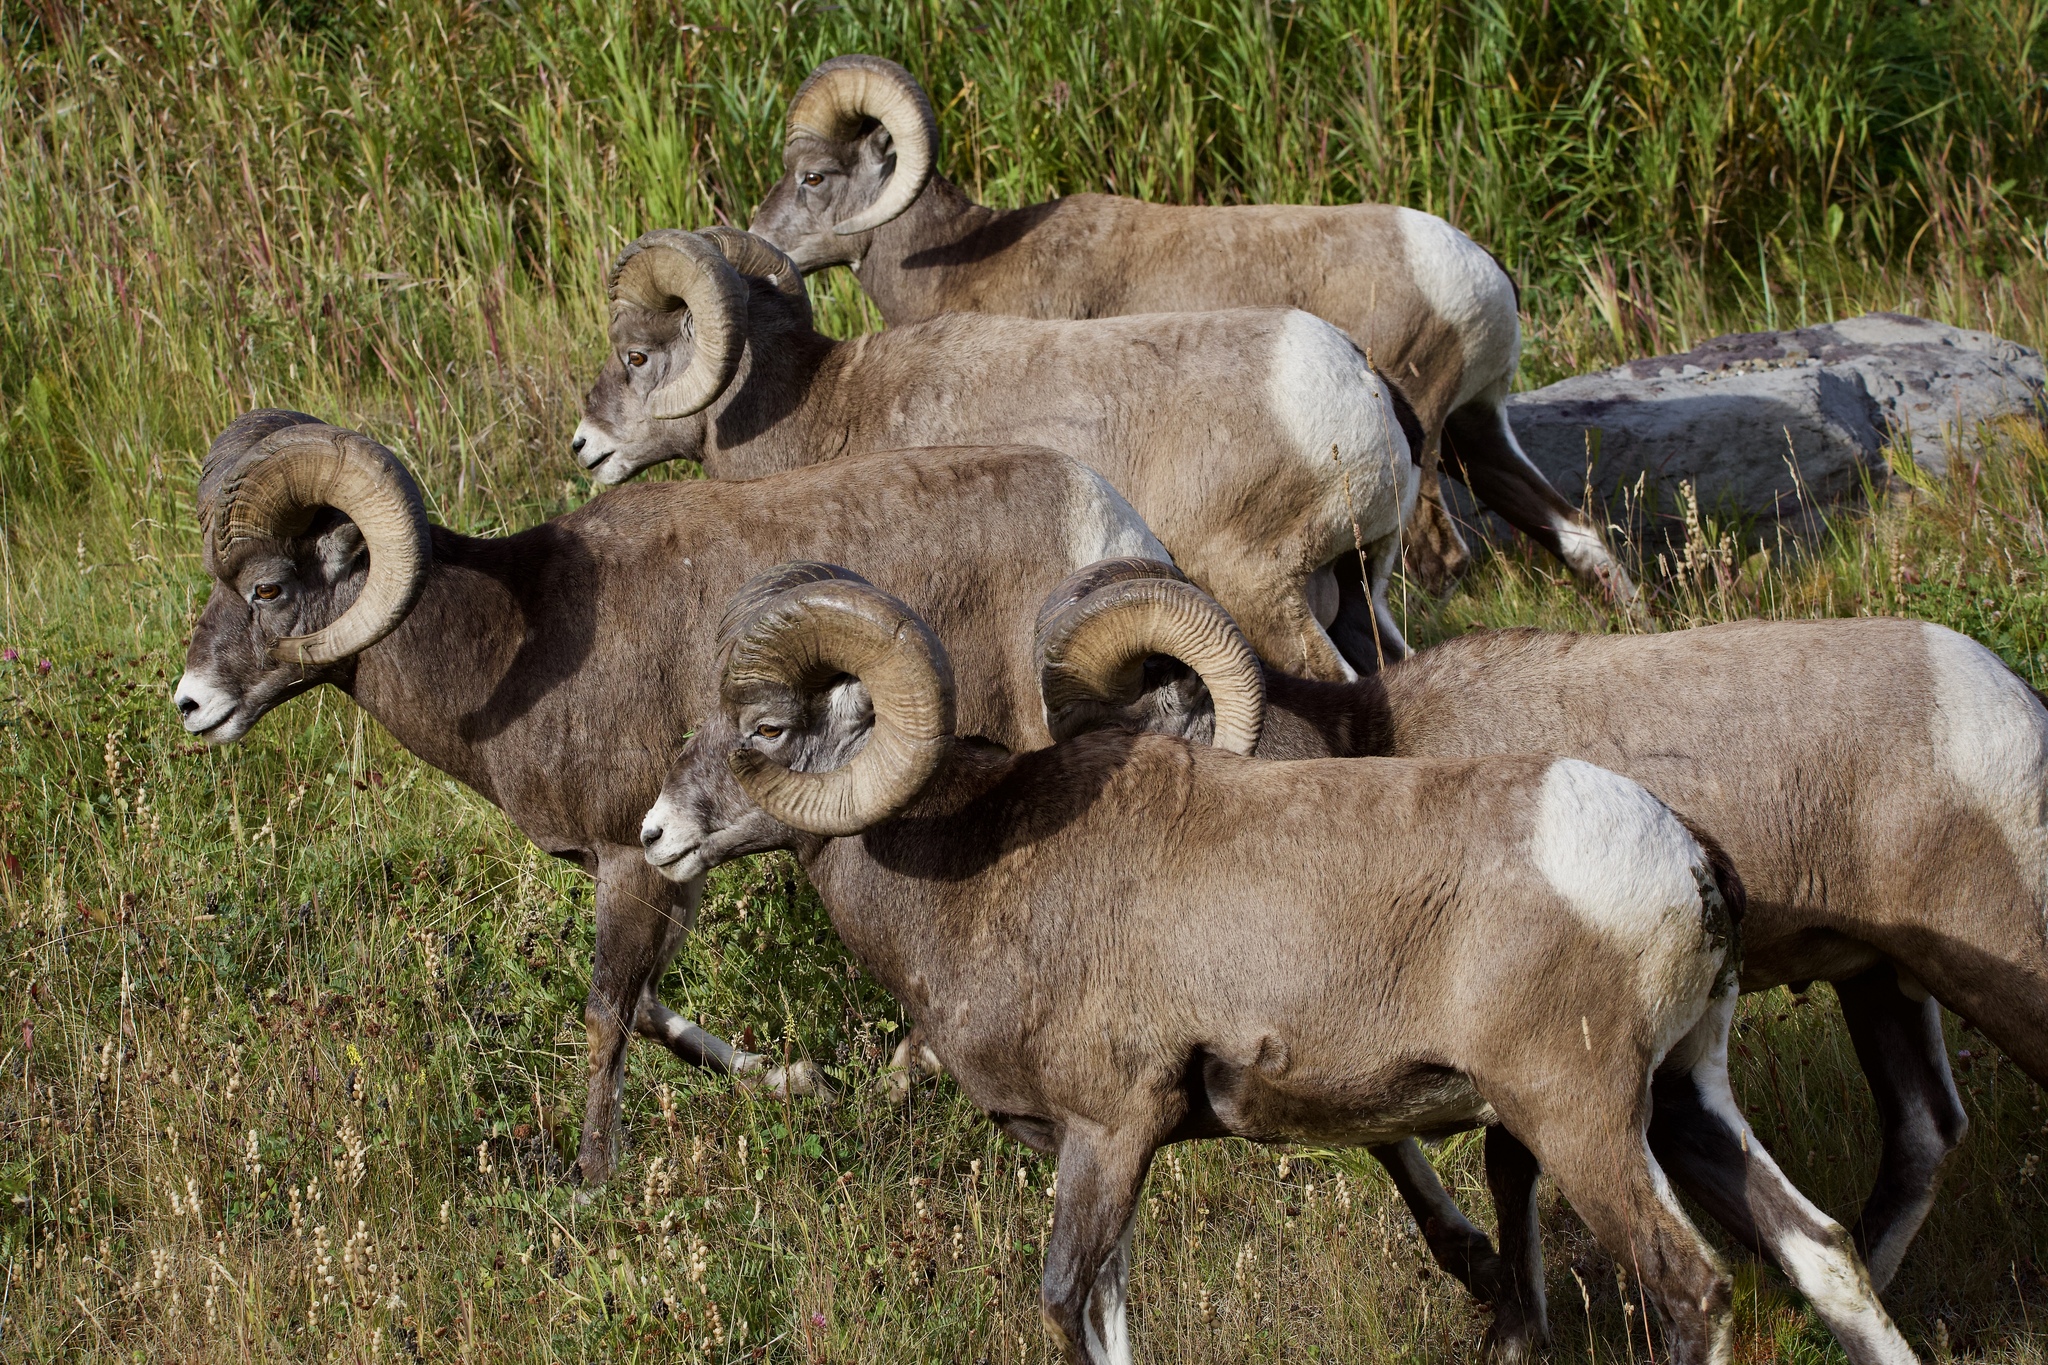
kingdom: Animalia
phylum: Chordata
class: Mammalia
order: Artiodactyla
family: Bovidae
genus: Ovis
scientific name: Ovis canadensis
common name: Bighorn sheep
